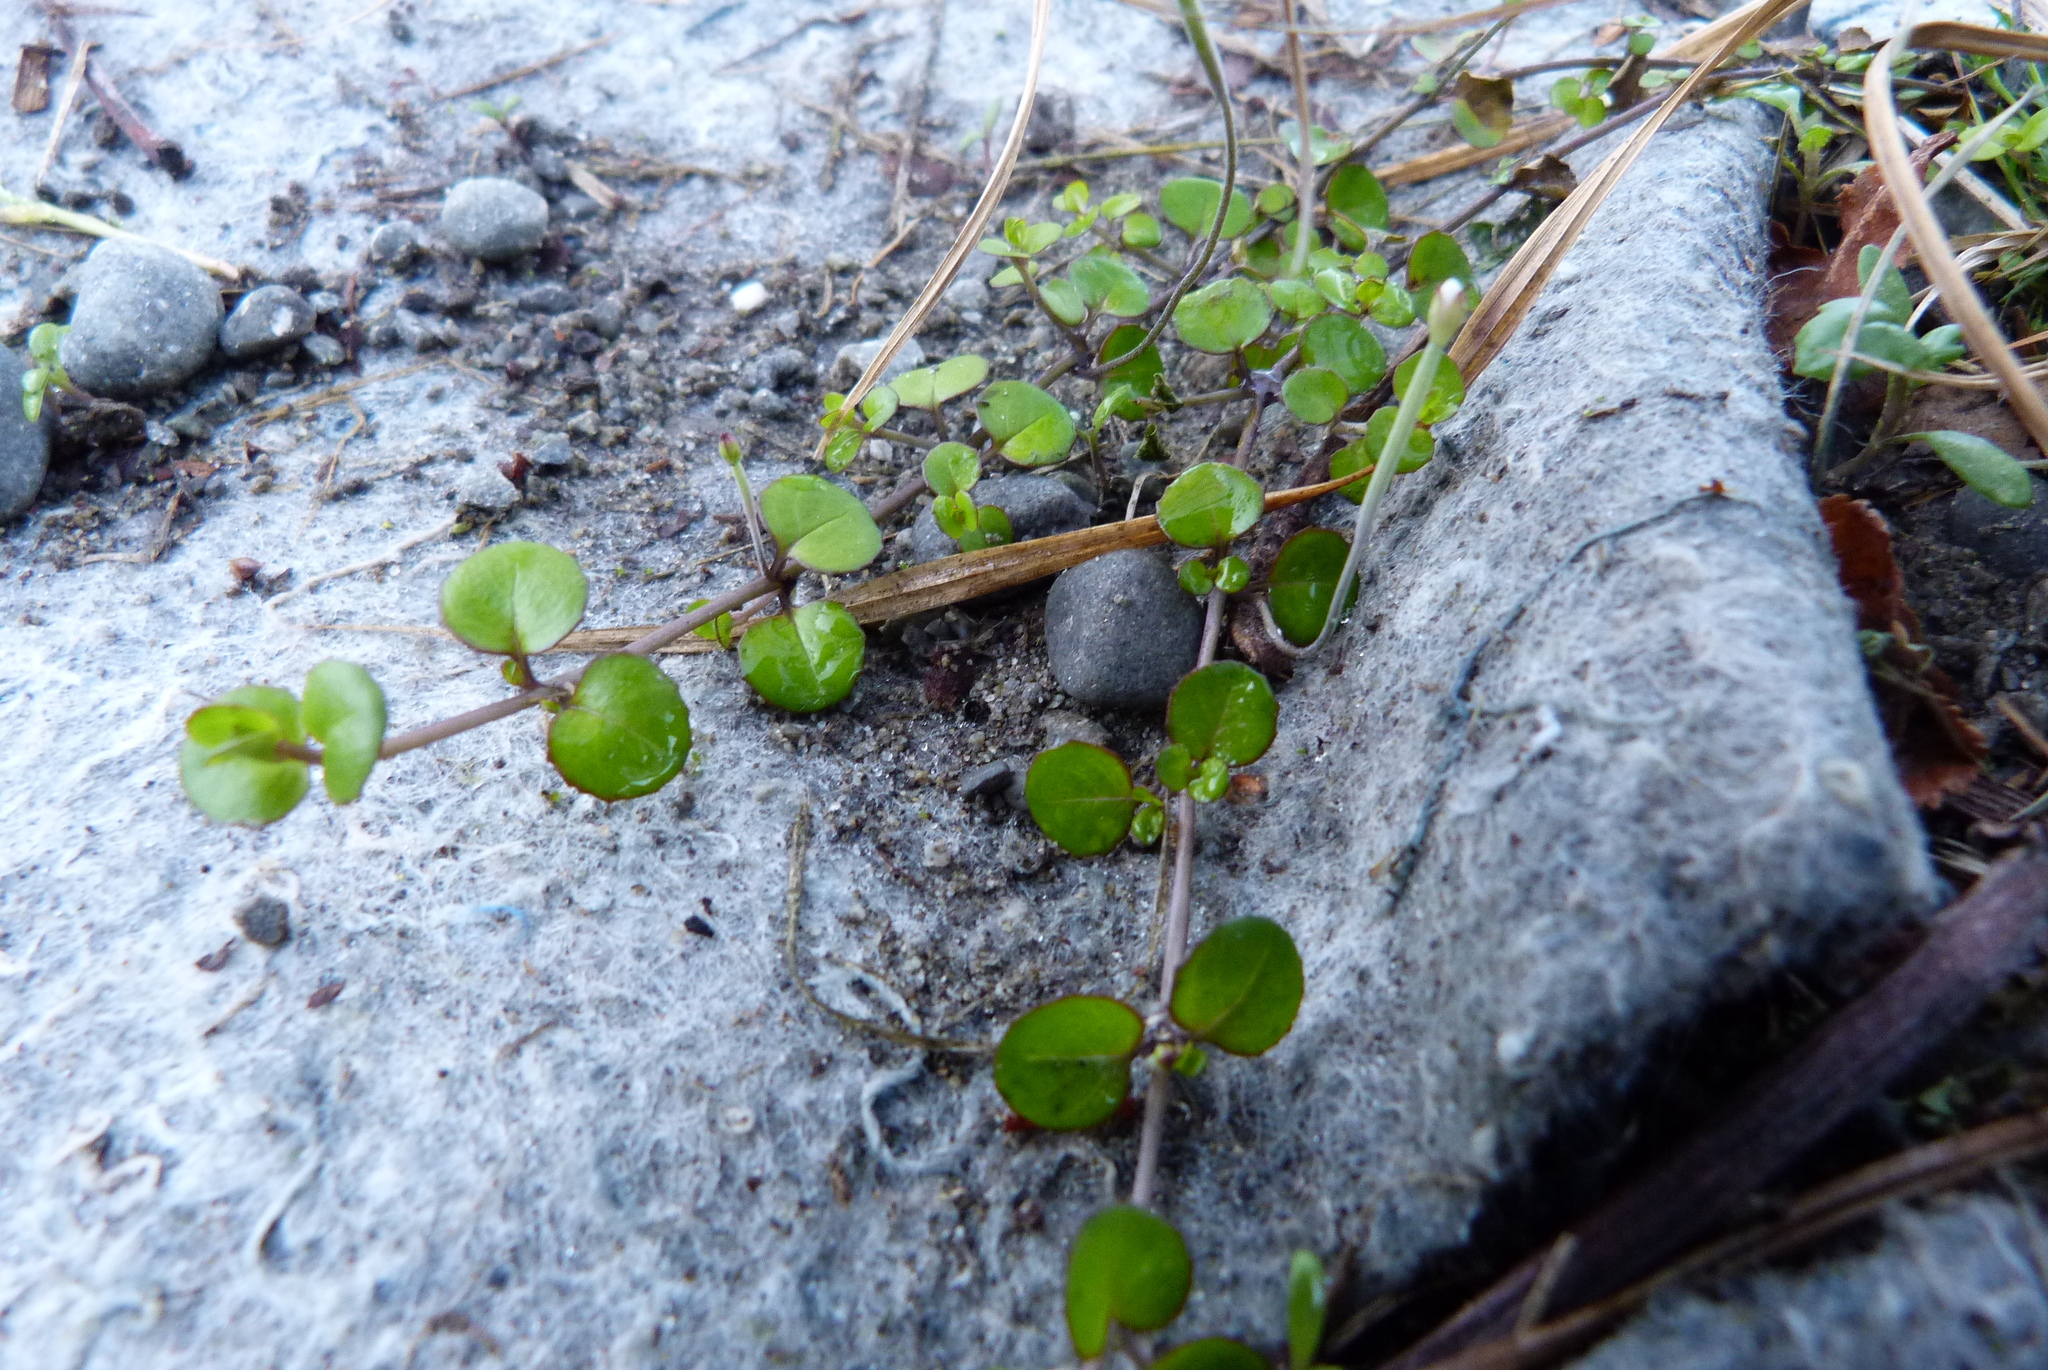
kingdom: Plantae
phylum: Tracheophyta
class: Magnoliopsida
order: Myrtales
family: Onagraceae
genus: Epilobium
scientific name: Epilobium nummularifolium
